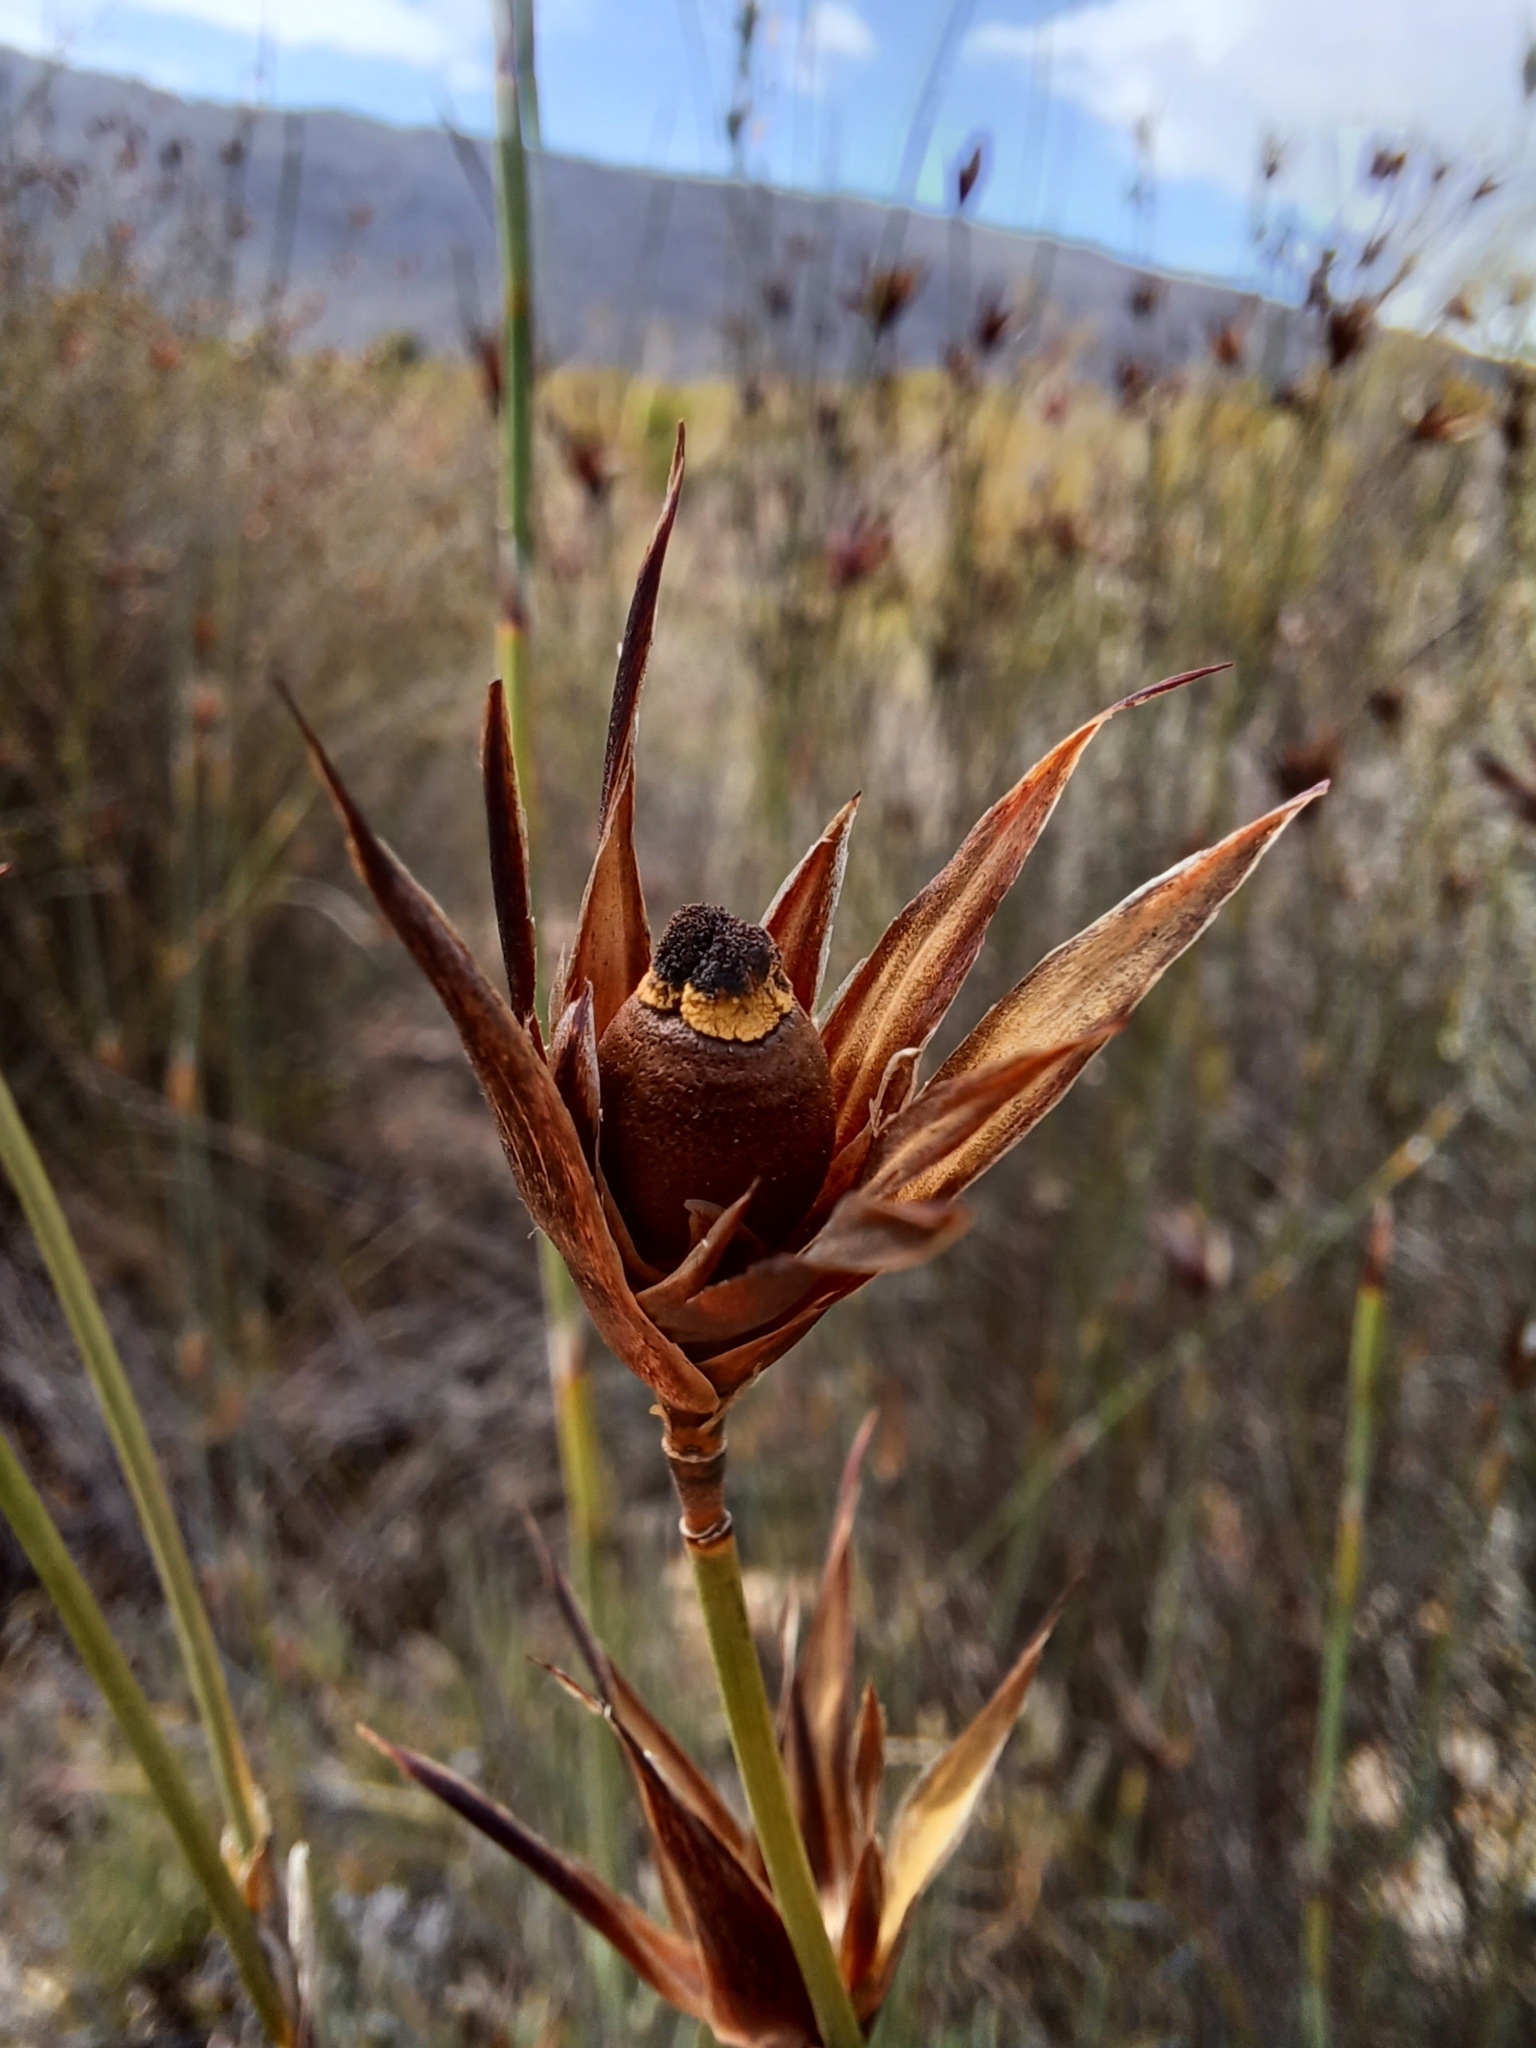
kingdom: Plantae
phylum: Tracheophyta
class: Liliopsida
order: Poales
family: Restionaceae
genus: Willdenowia
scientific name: Willdenowia incurvata
